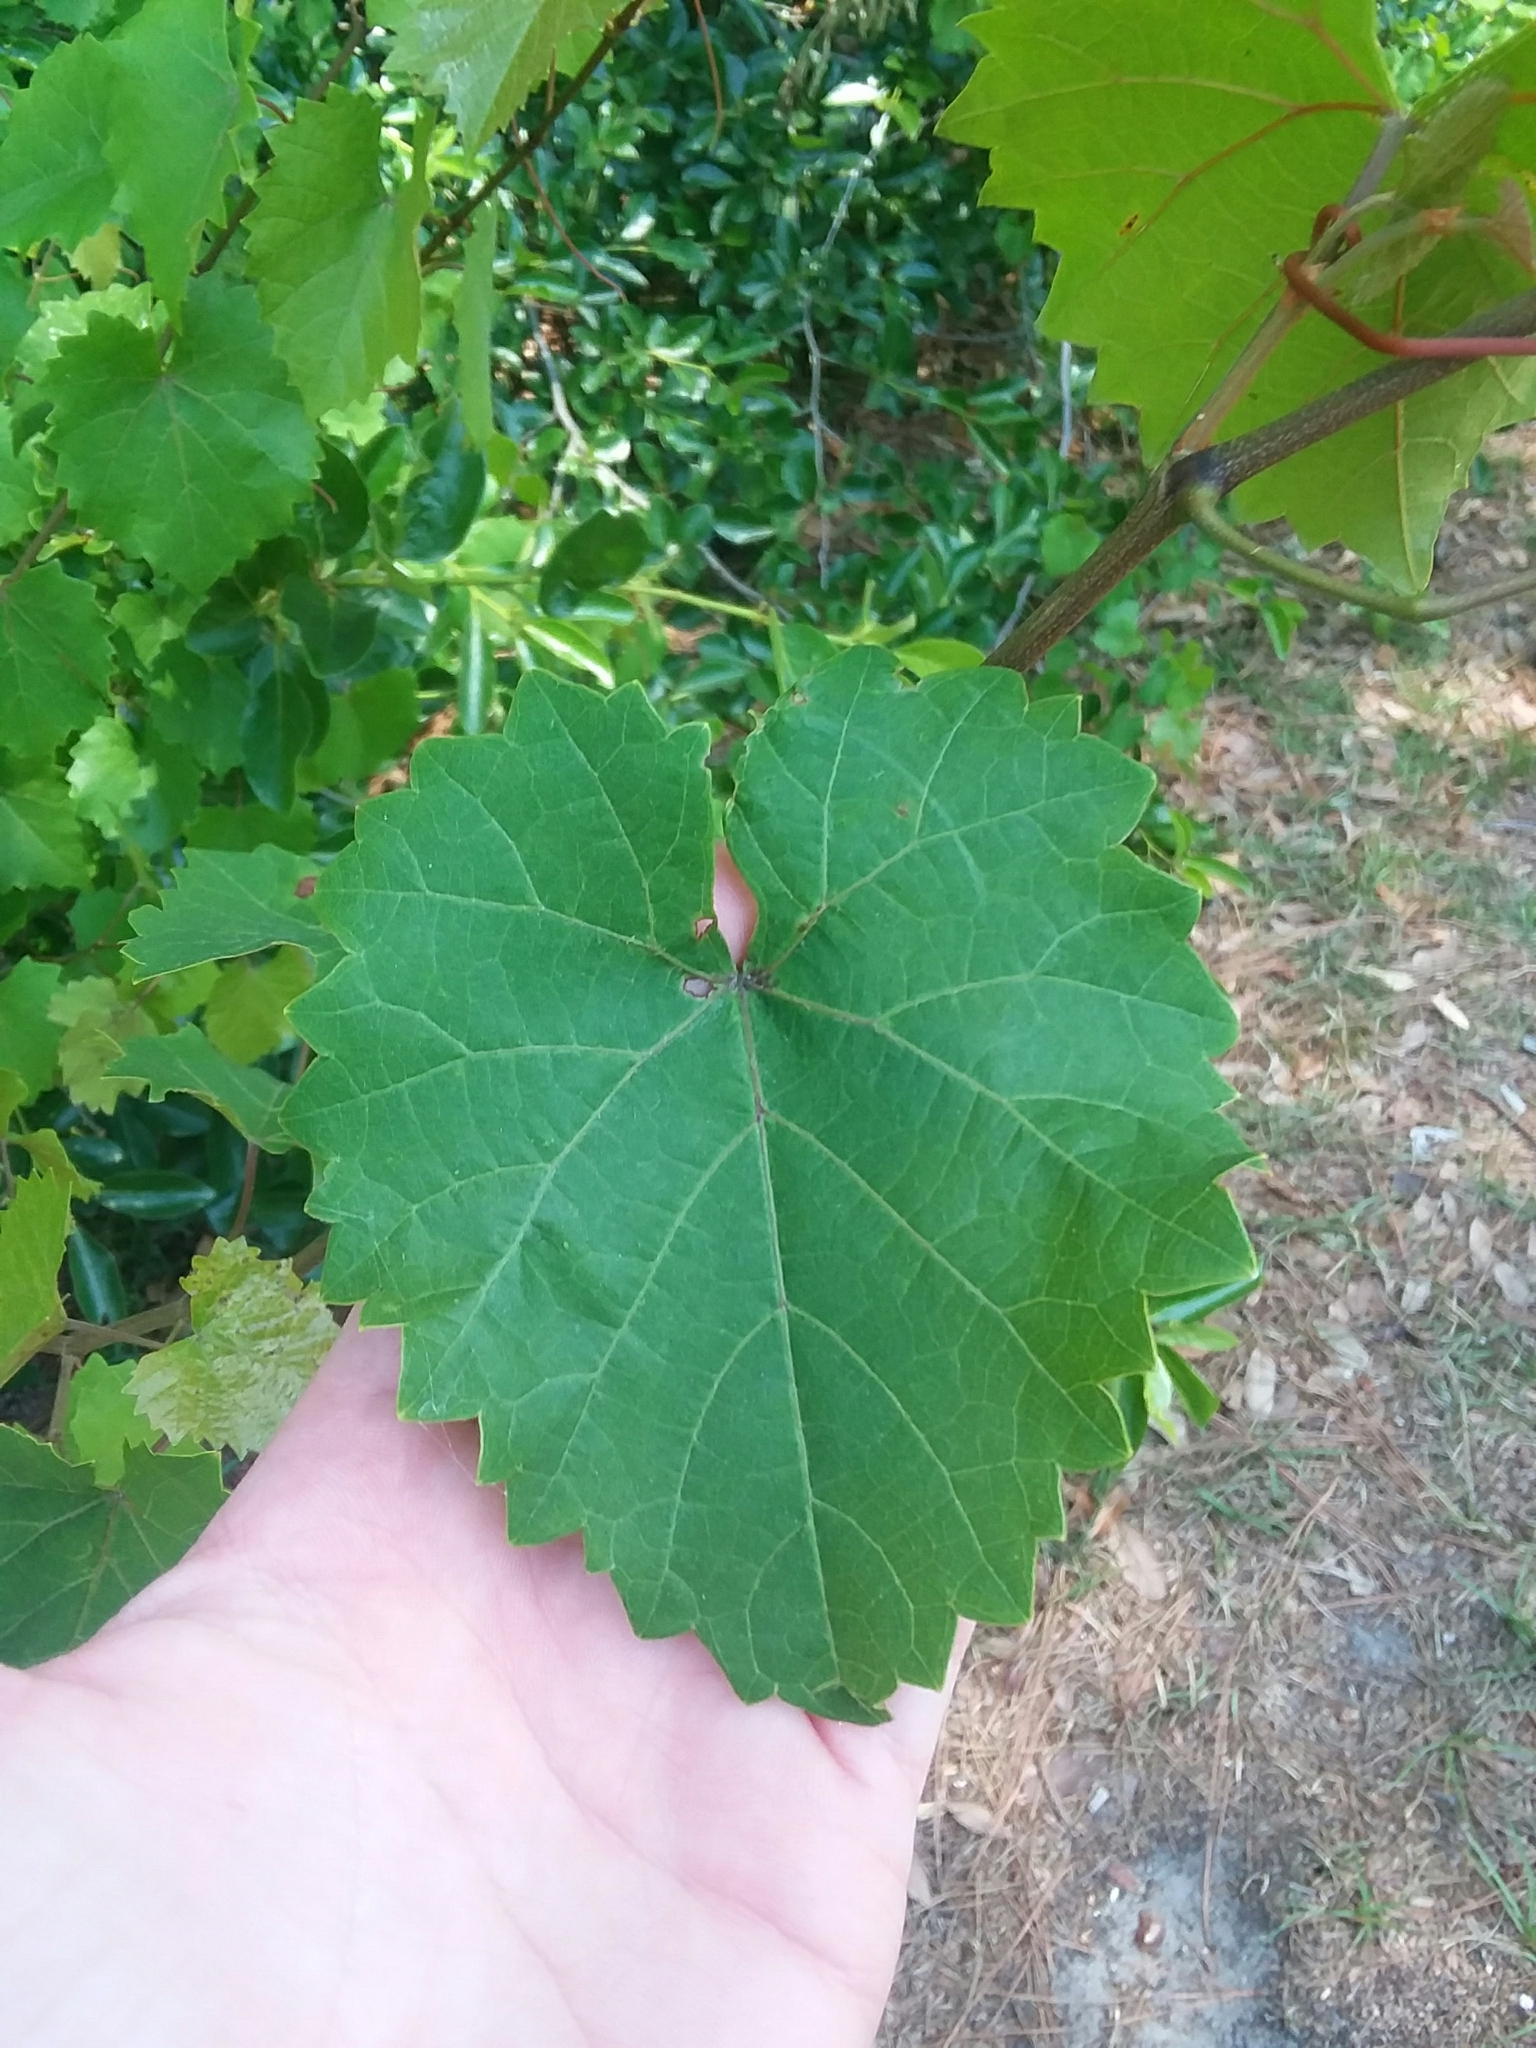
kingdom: Plantae
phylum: Tracheophyta
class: Magnoliopsida
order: Vitales
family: Vitaceae
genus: Vitis
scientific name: Vitis rotundifolia
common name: Muscadine grape
